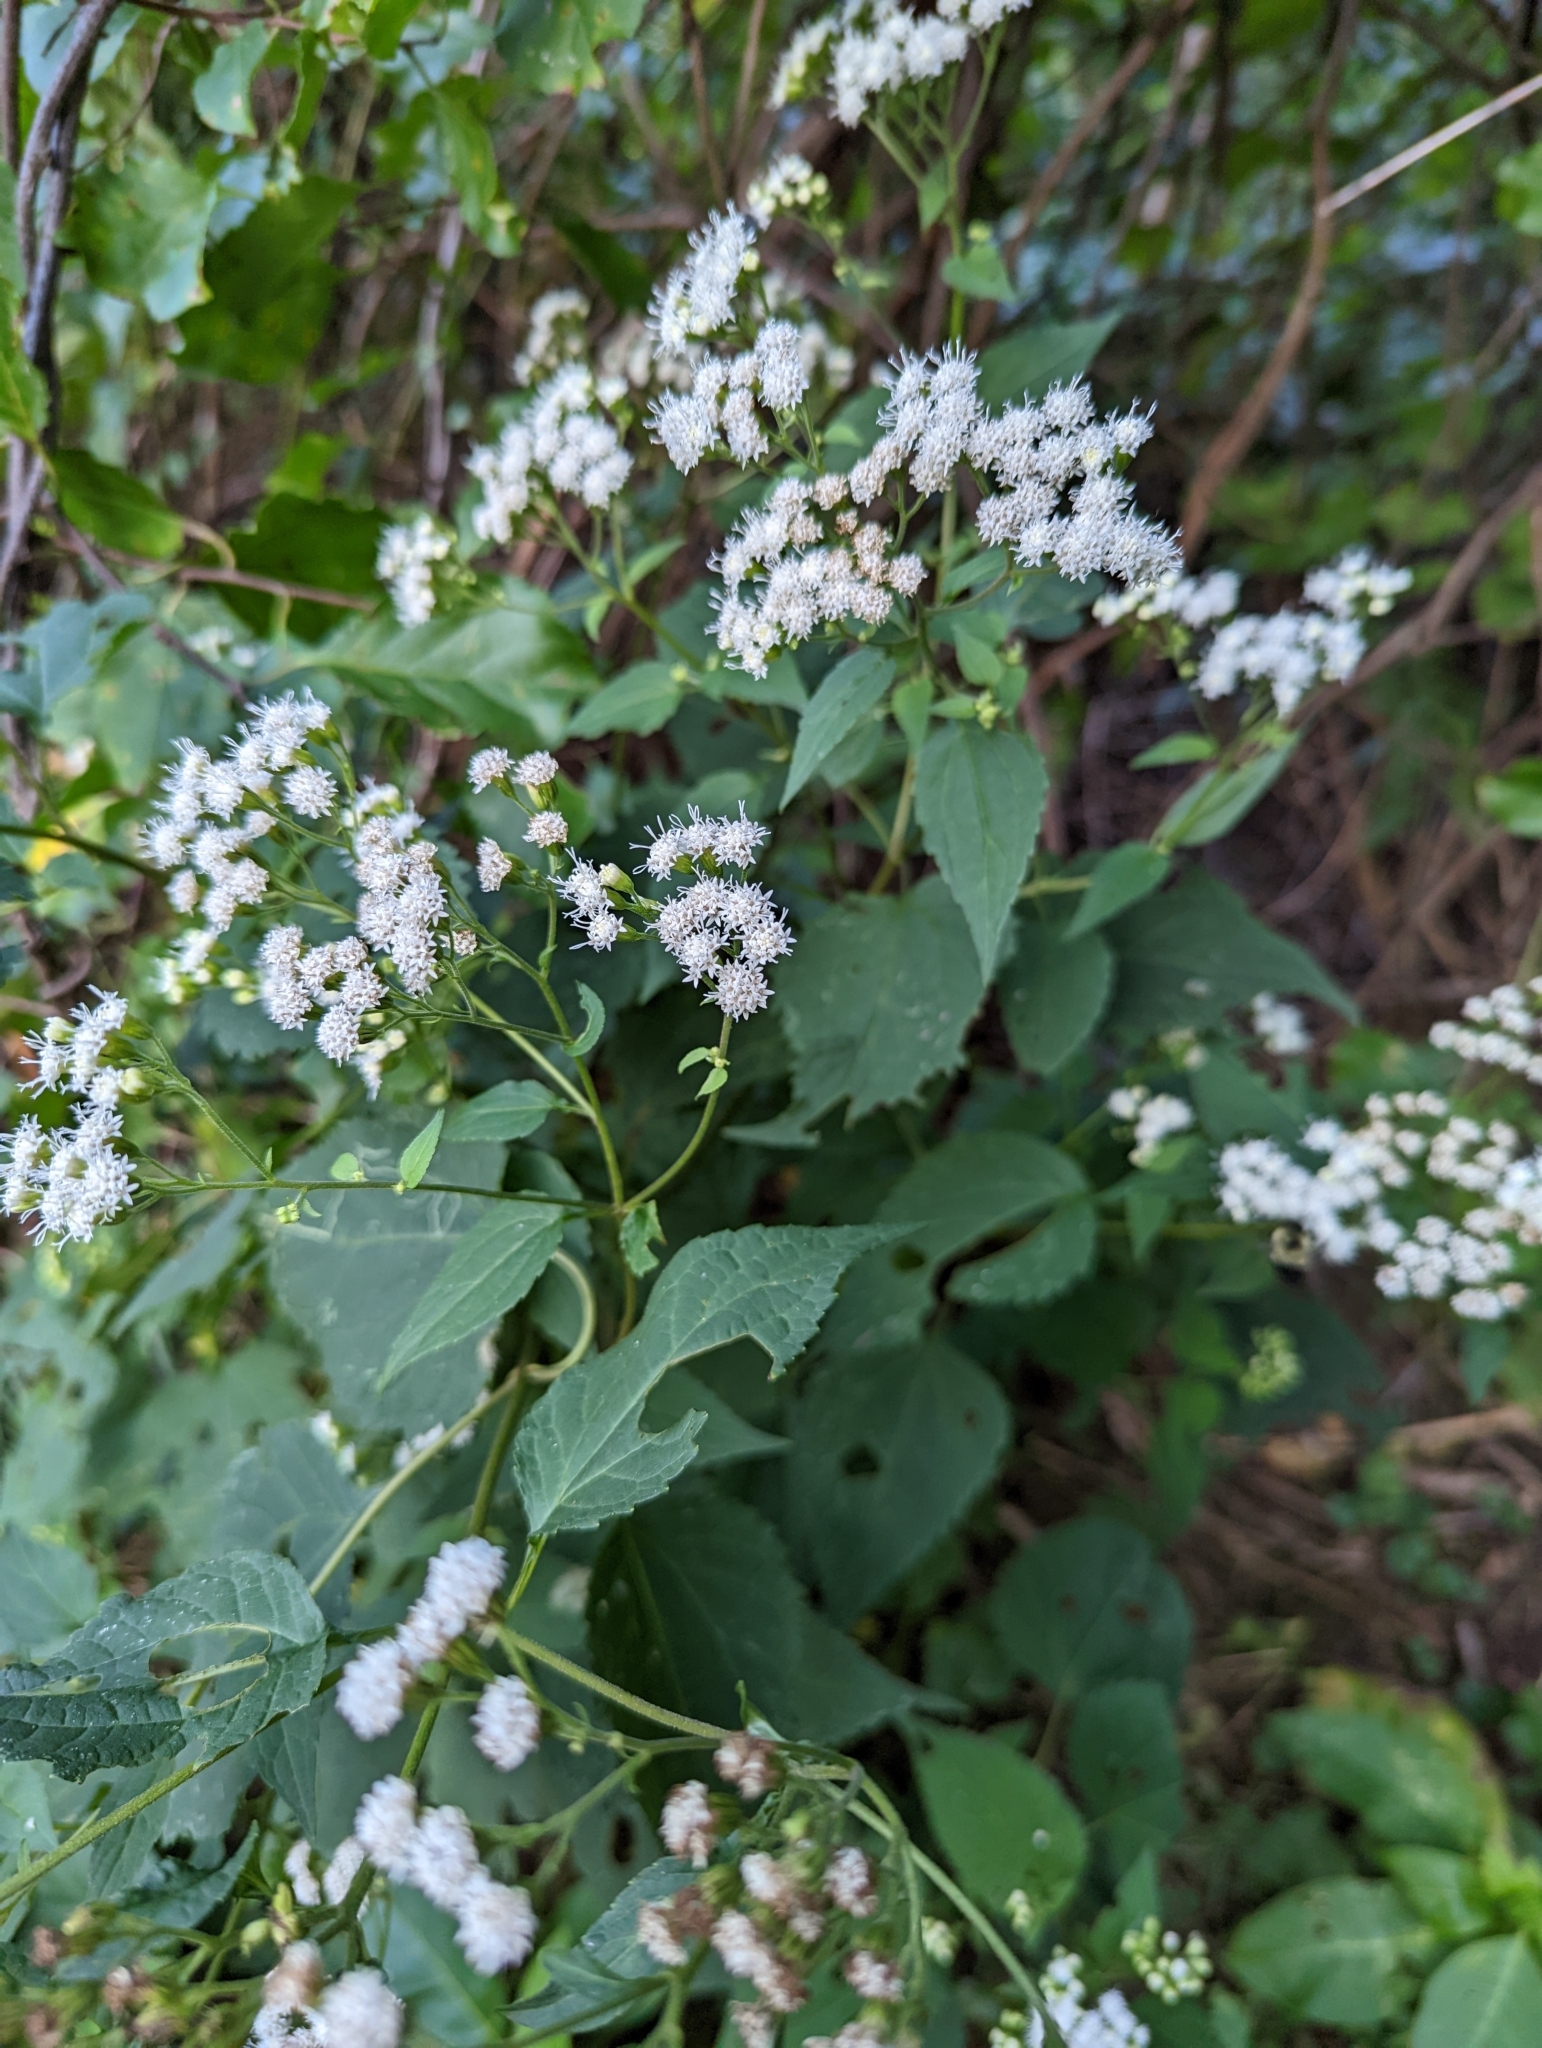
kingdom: Plantae
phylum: Tracheophyta
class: Magnoliopsida
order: Asterales
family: Asteraceae
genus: Ageratina
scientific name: Ageratina altissima
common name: White snakeroot
